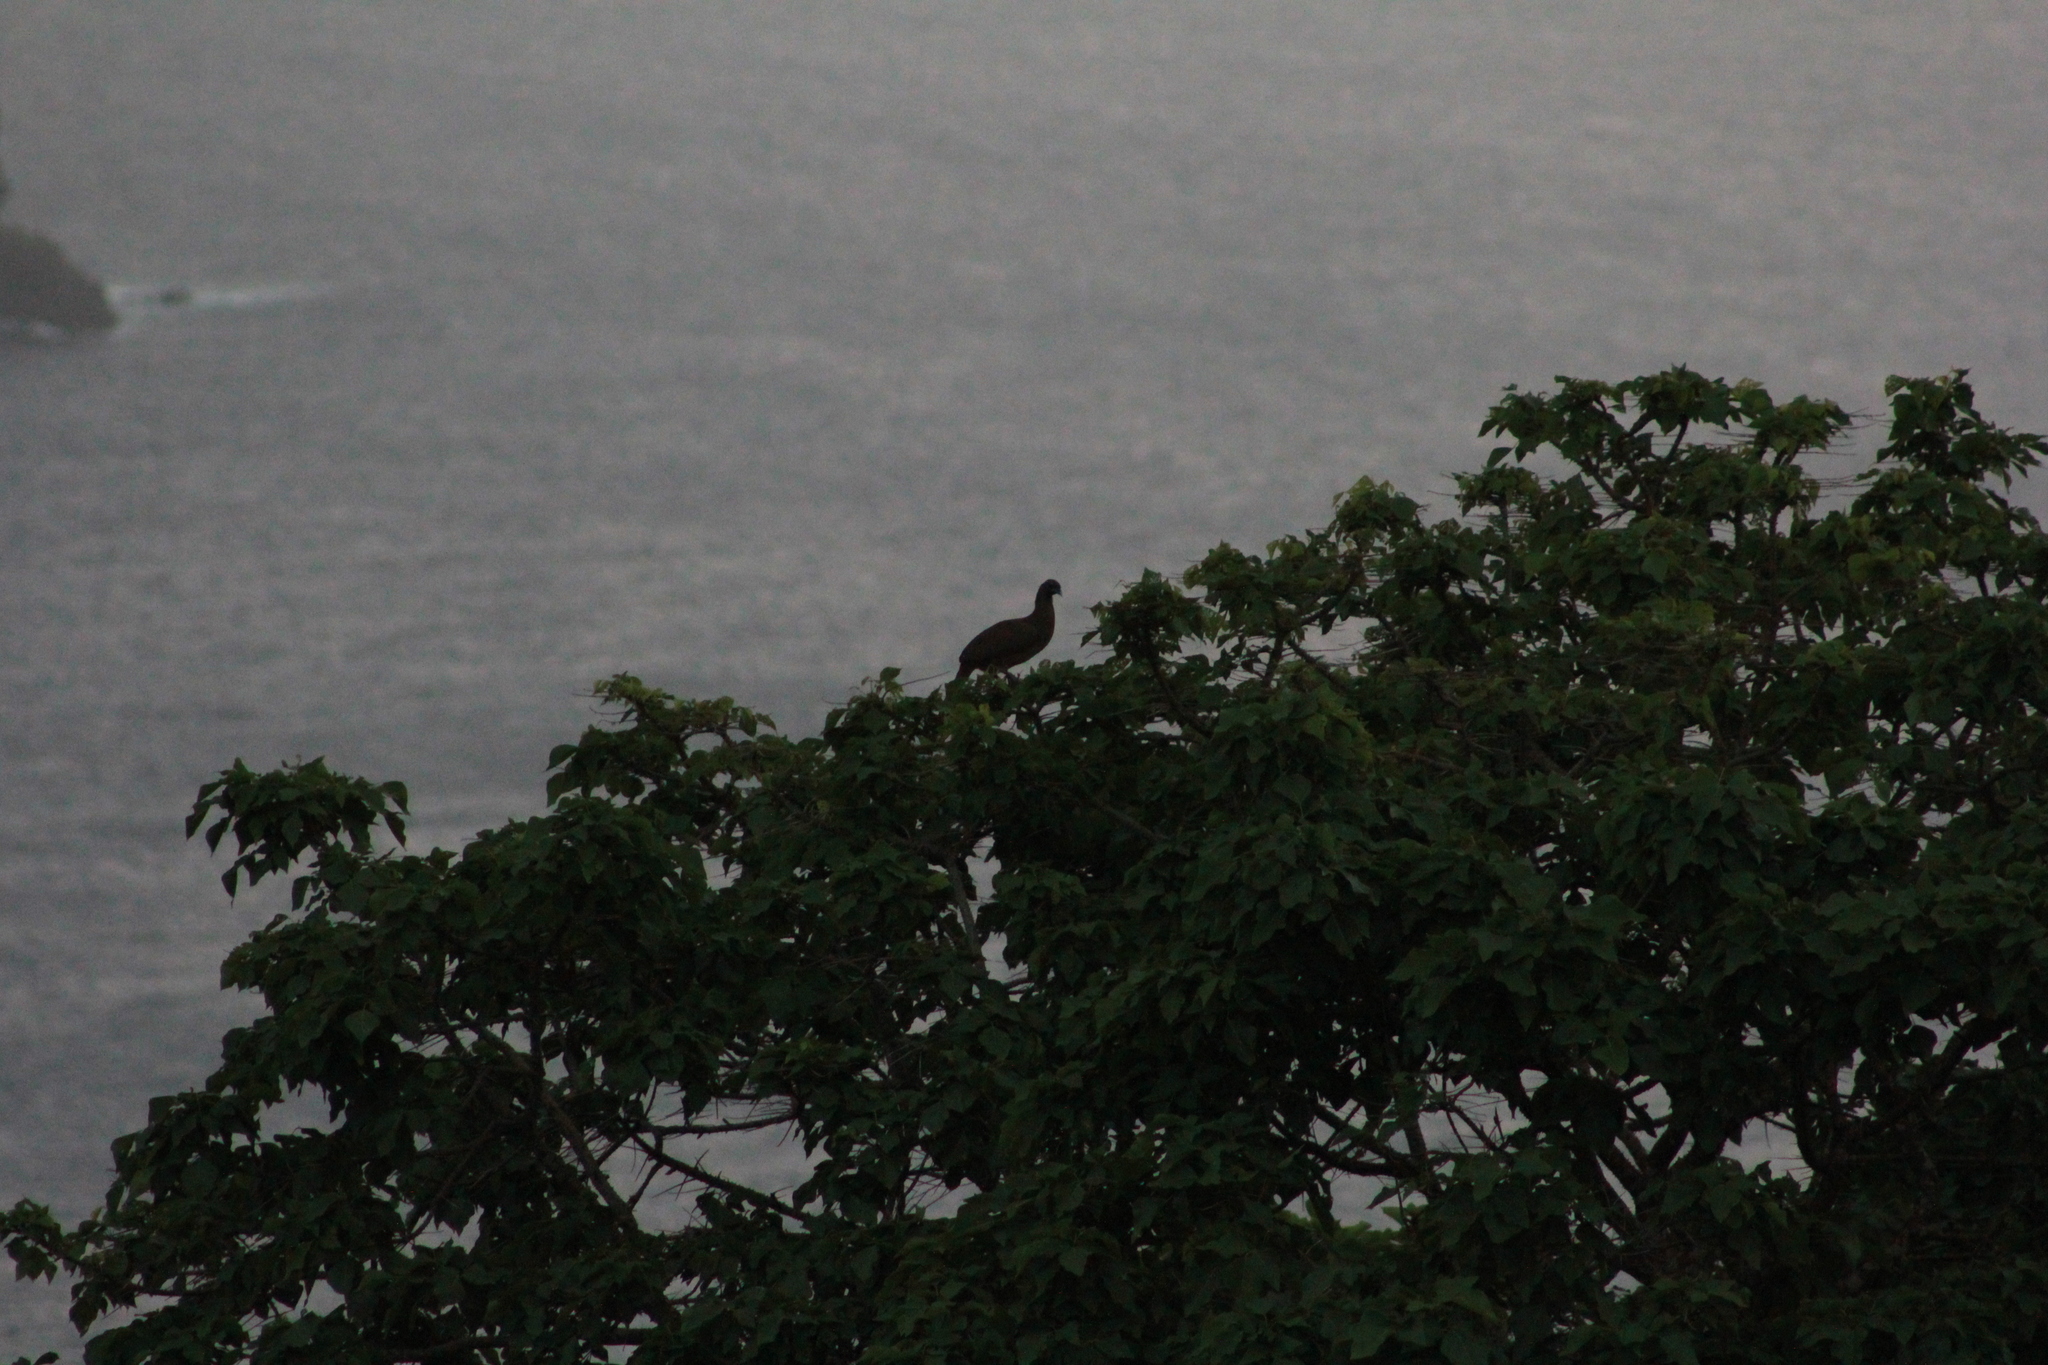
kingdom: Animalia
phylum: Chordata
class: Aves
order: Galliformes
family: Cracidae
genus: Ortalis
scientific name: Ortalis ruficauda
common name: Rufous-vented chachalaca
